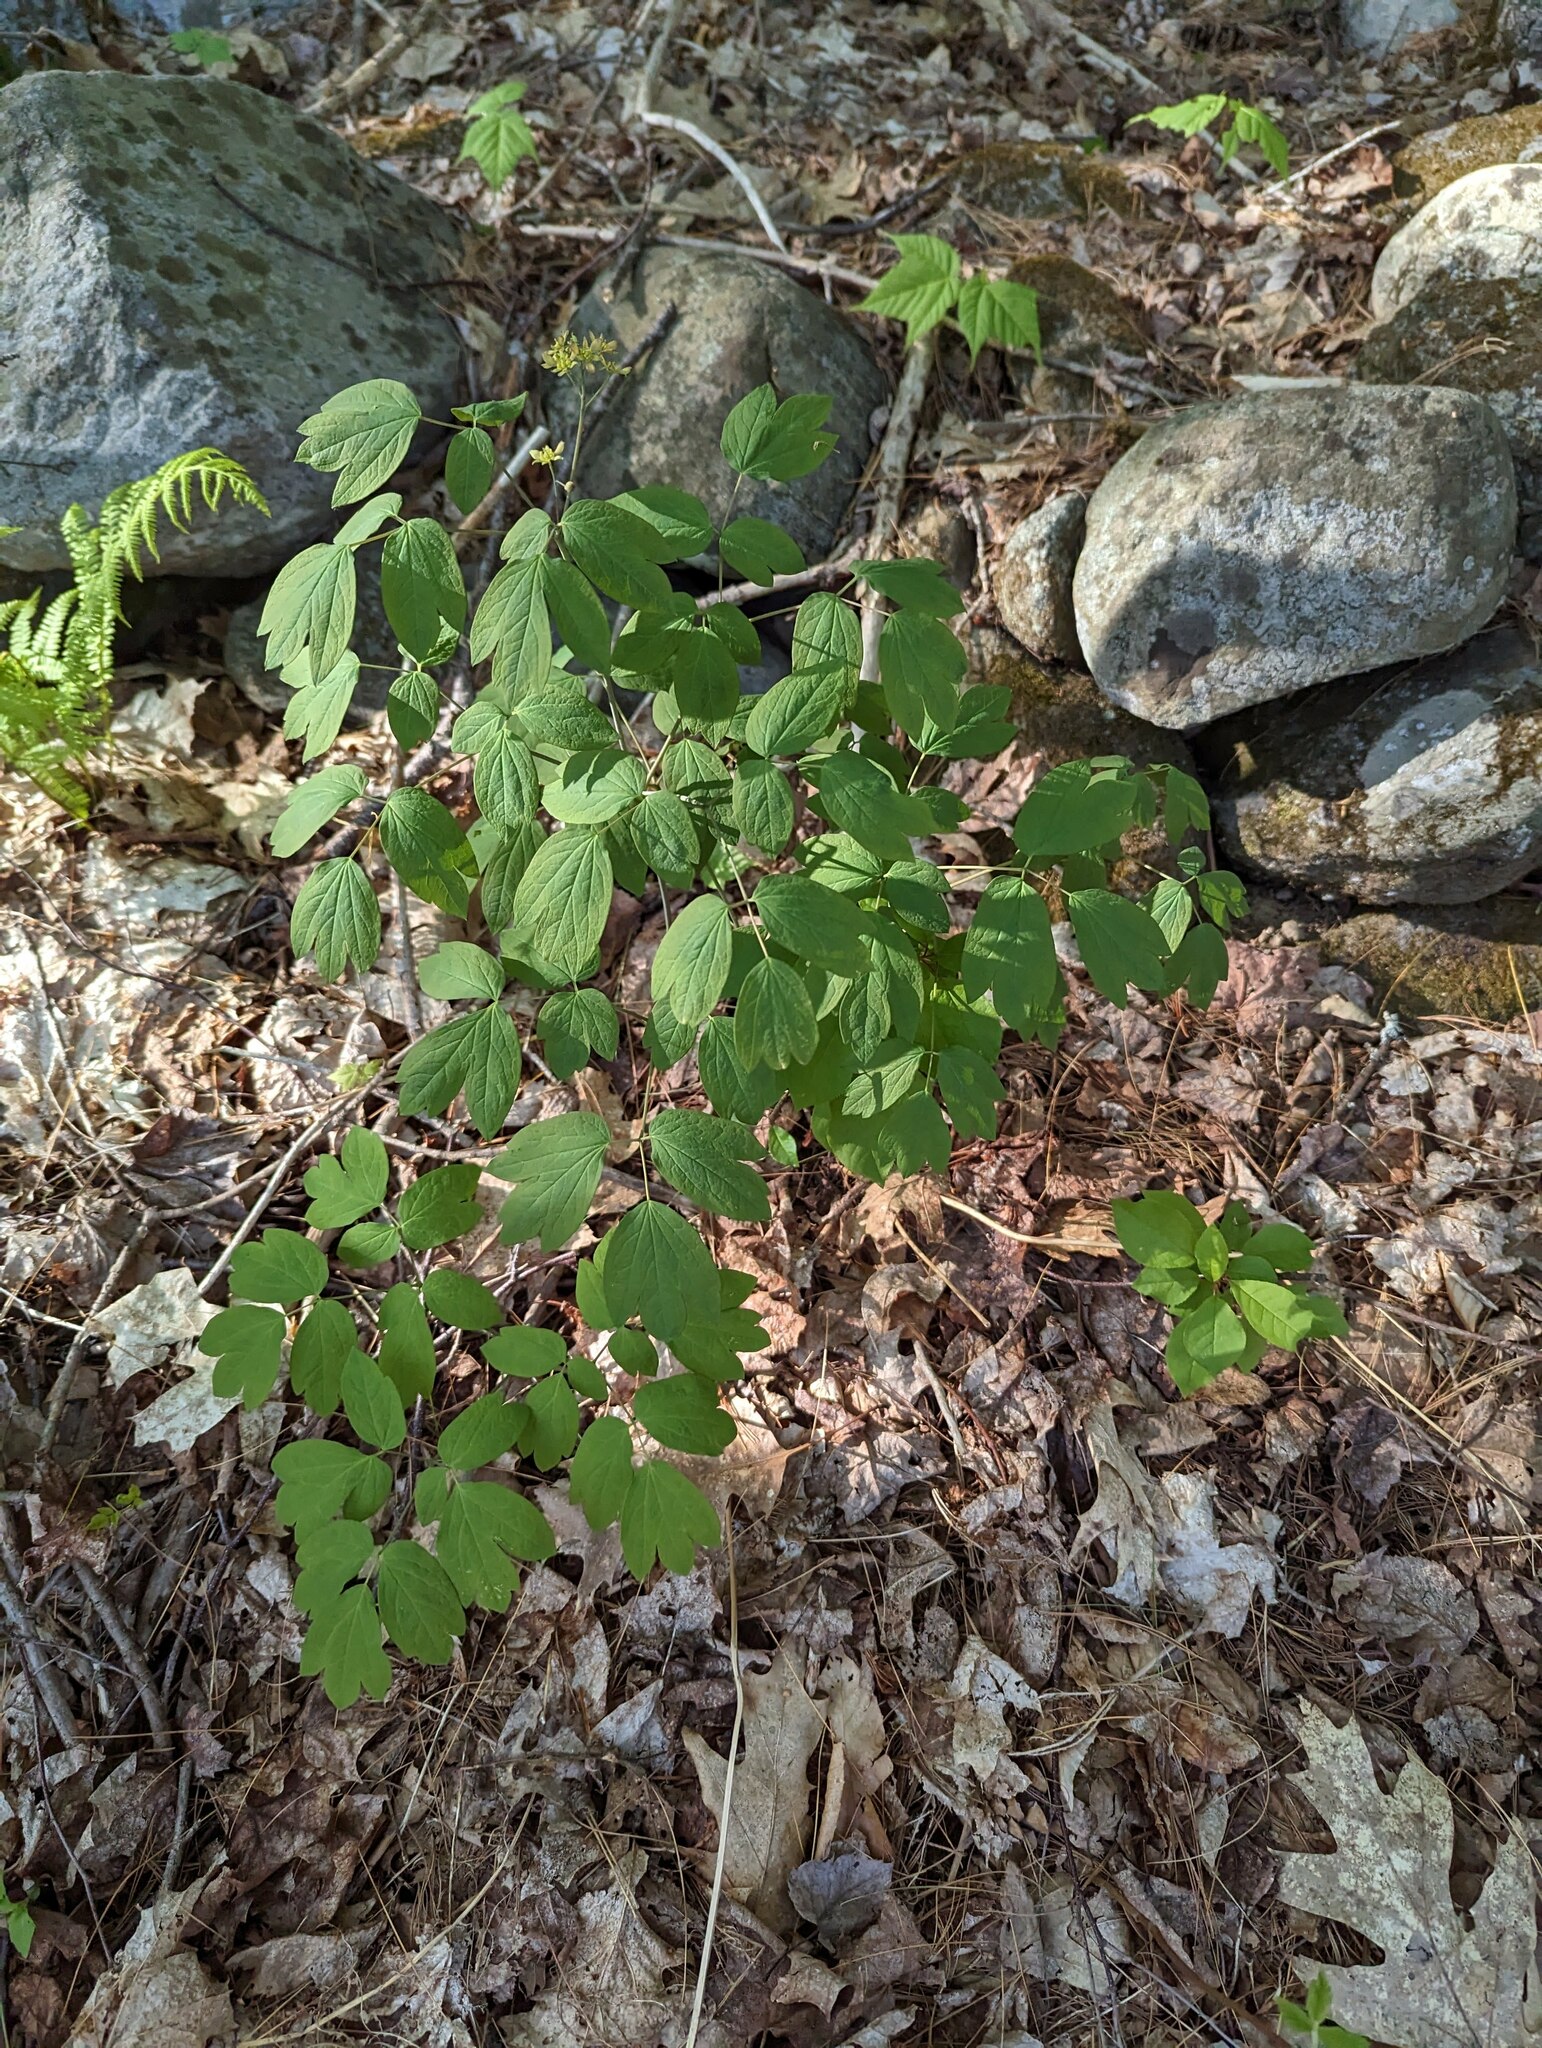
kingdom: Plantae
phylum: Tracheophyta
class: Magnoliopsida
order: Ranunculales
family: Berberidaceae
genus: Caulophyllum
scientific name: Caulophyllum thalictroides
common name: Blue cohosh
